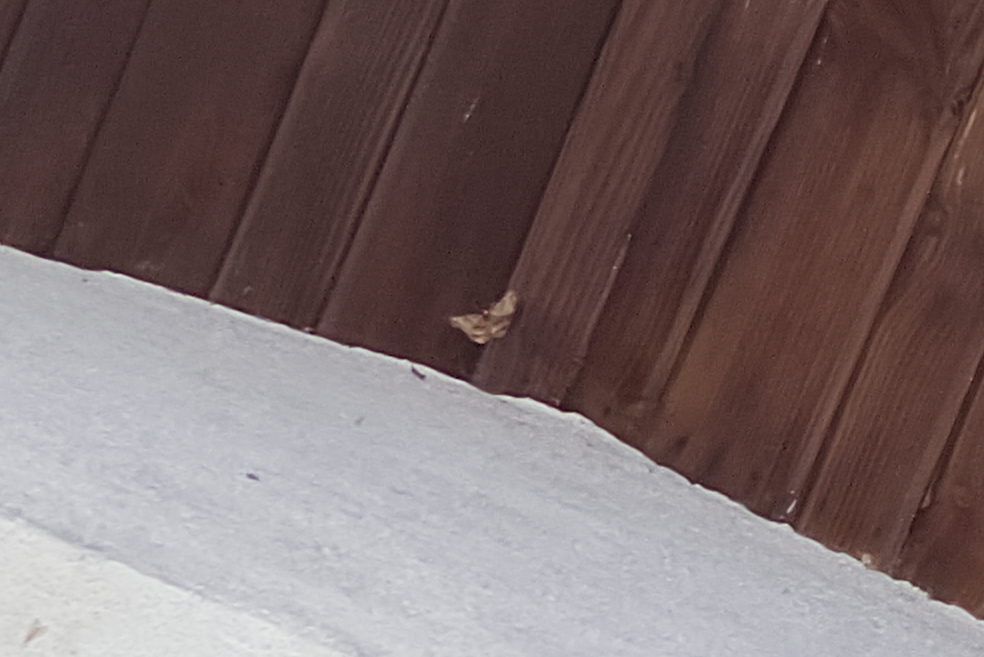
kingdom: Animalia
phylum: Arthropoda
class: Insecta
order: Lepidoptera
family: Geometridae
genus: Selenia
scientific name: Selenia dentaria
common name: Early thorn
